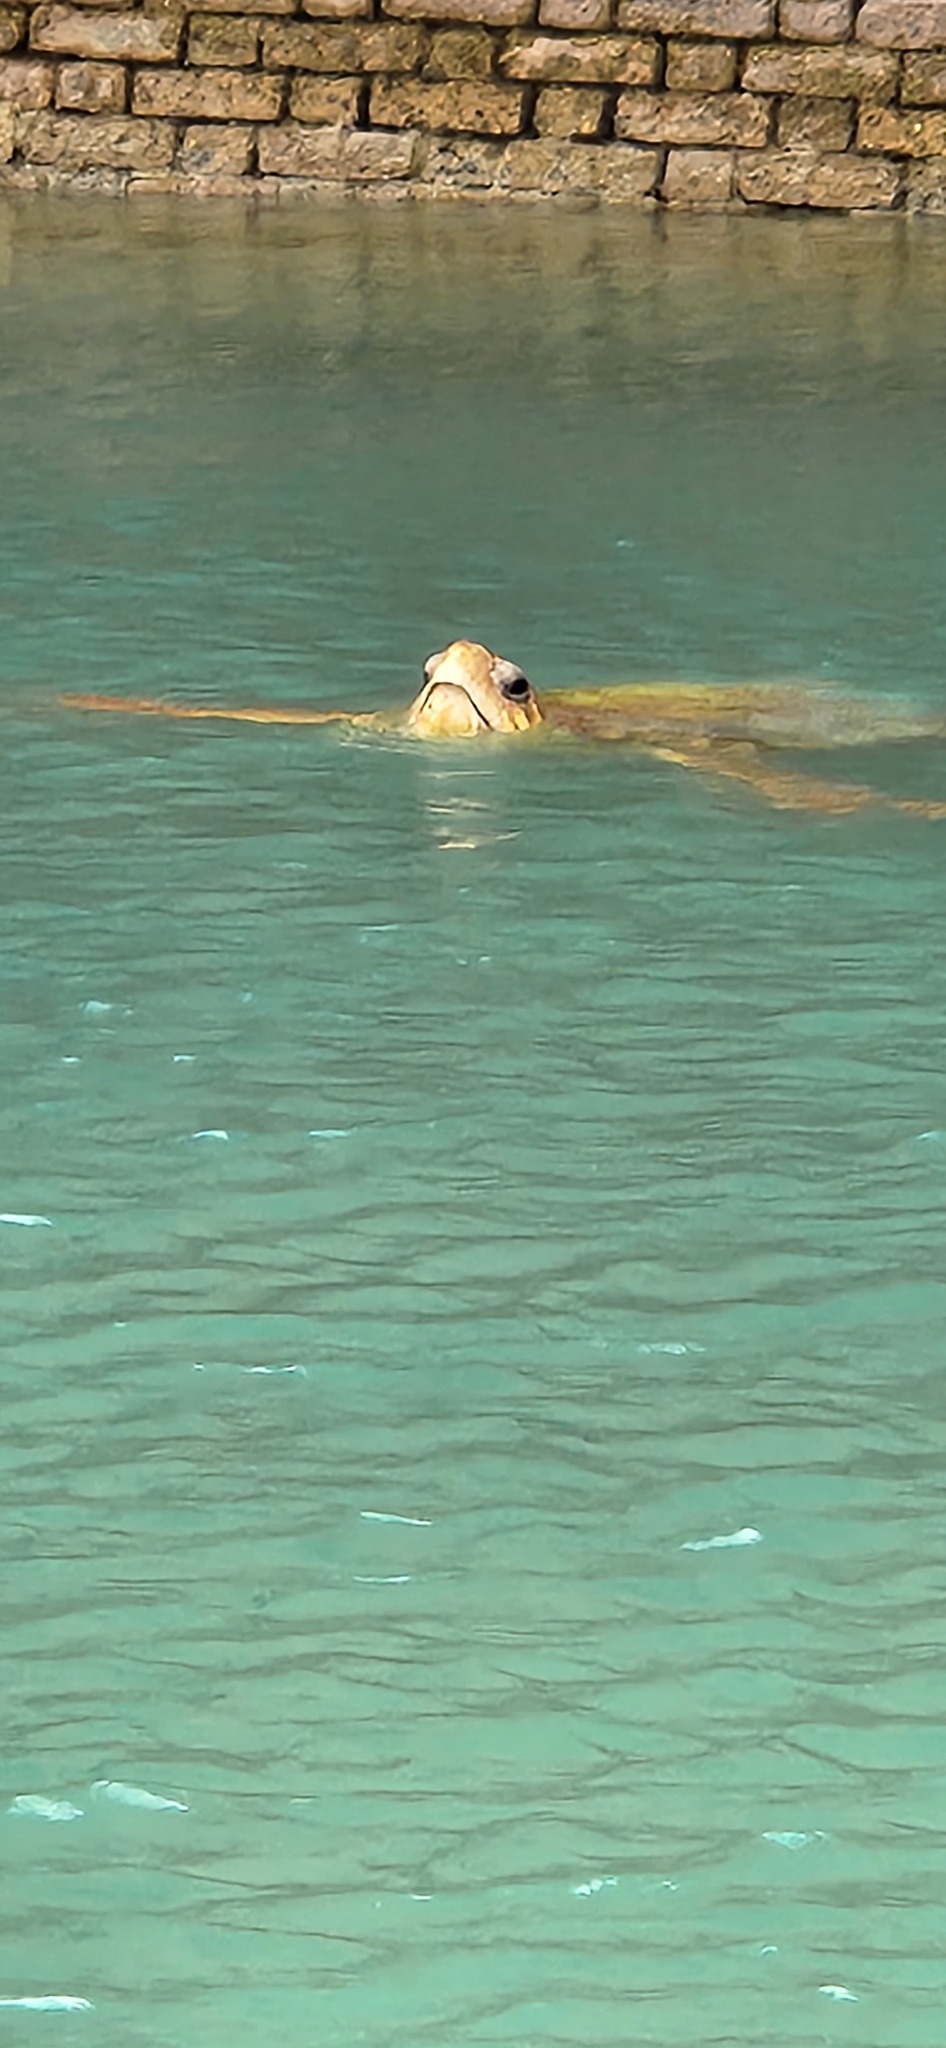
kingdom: Animalia
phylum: Chordata
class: Testudines
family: Cheloniidae
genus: Caretta
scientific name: Caretta caretta
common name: Loggerhead sea turtle
